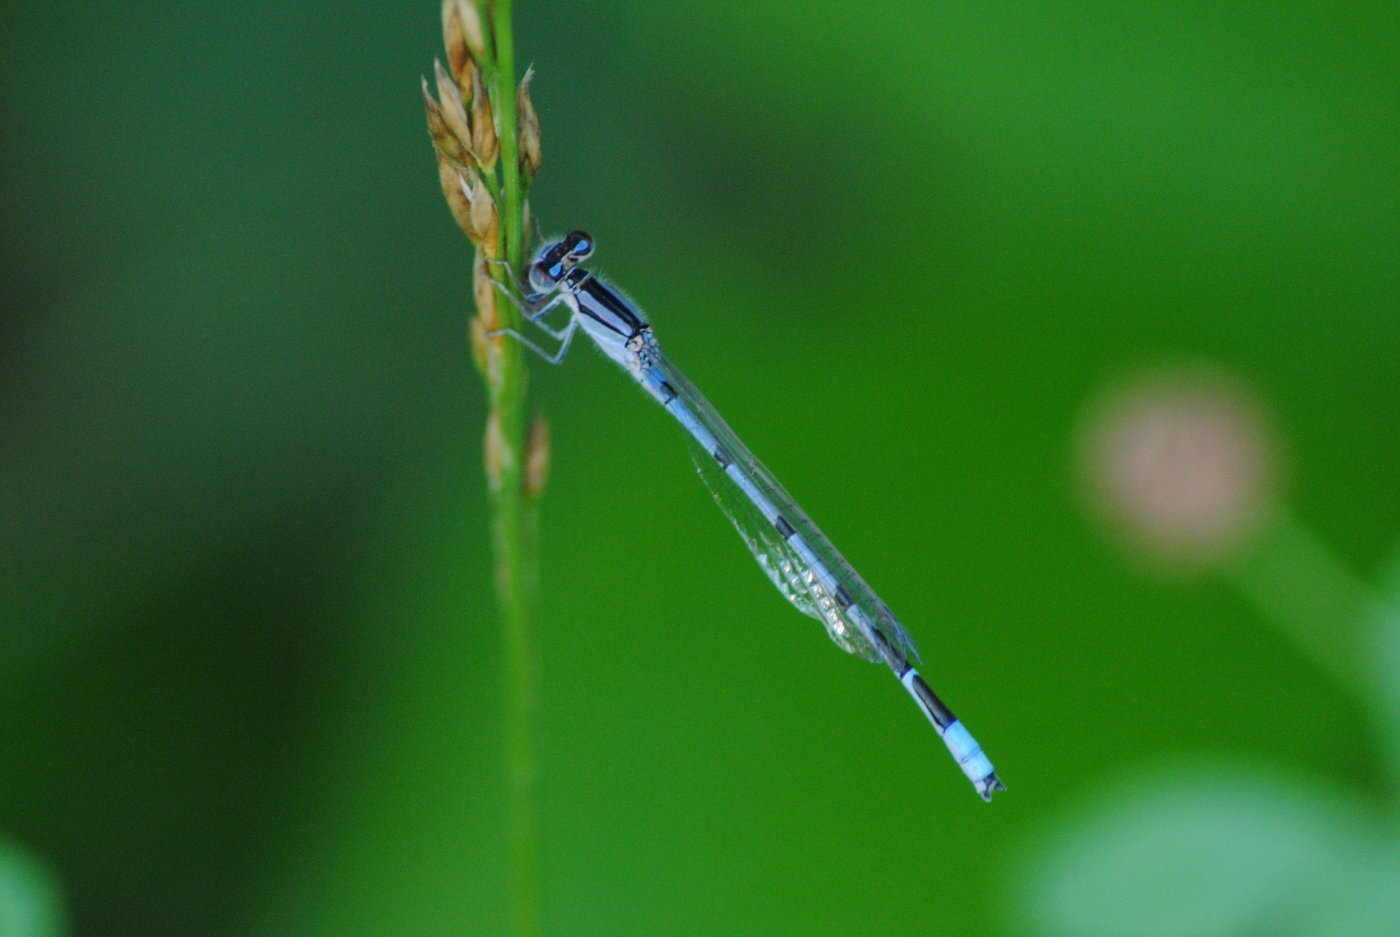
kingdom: Animalia
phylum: Arthropoda
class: Insecta
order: Odonata
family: Coenagrionidae
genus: Enallagma
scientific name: Enallagma civile
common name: Damselfly
